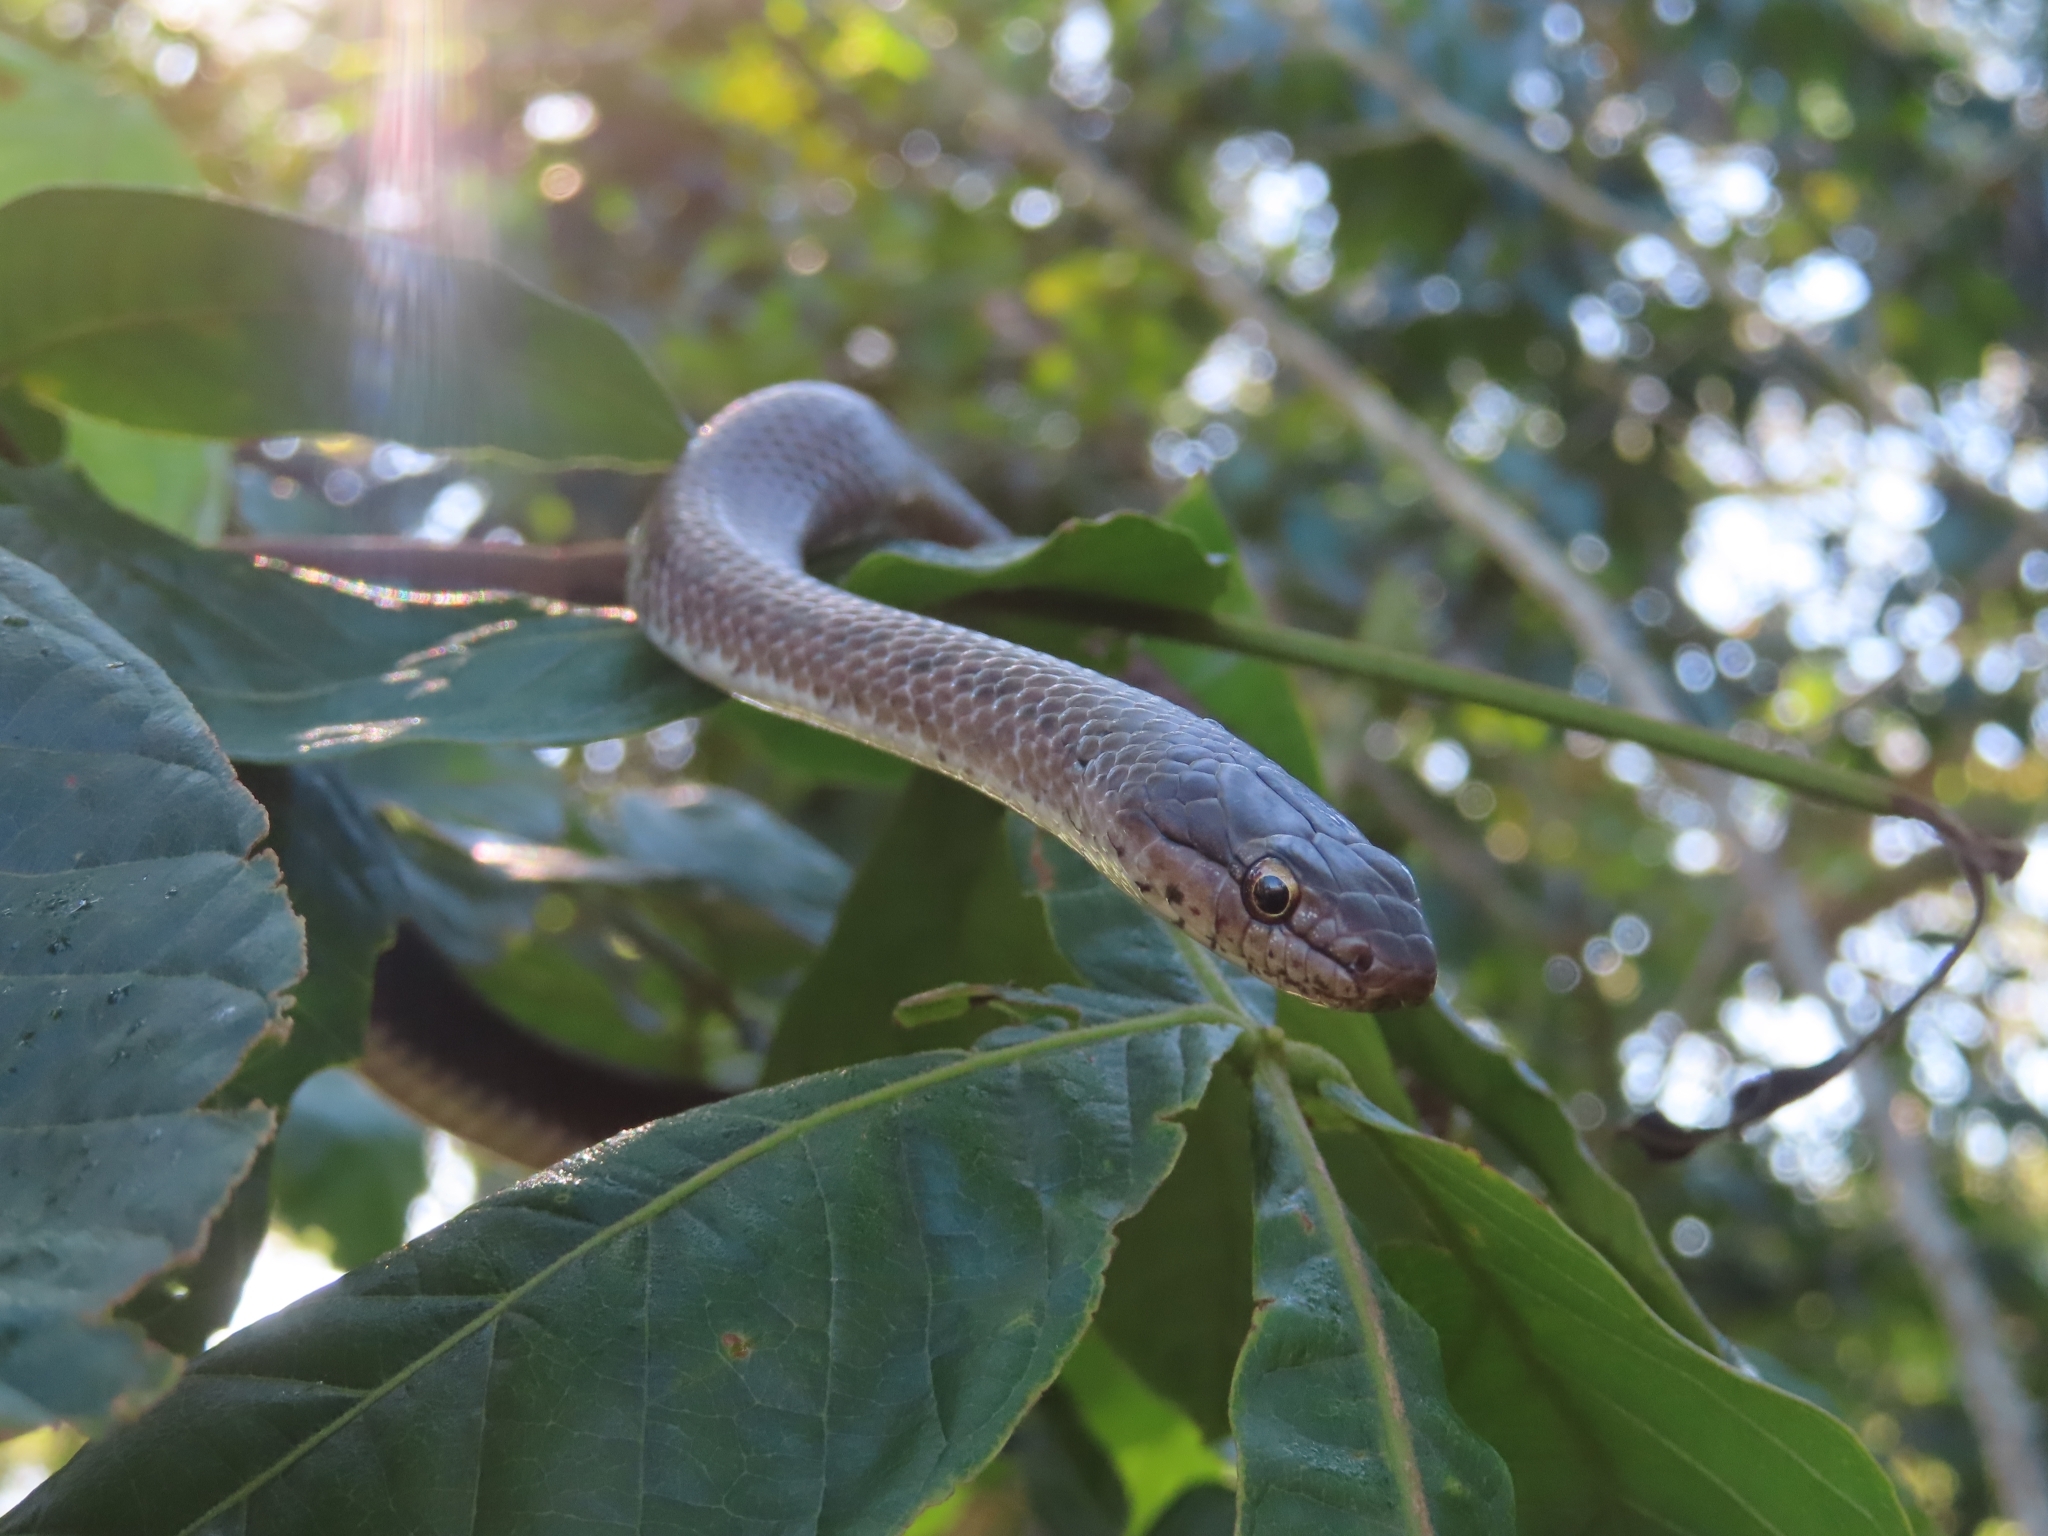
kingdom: Animalia
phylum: Chordata
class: Squamata
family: Colubridae
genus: Borikenophis
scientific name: Borikenophis portoricensis
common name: Puerto rican racer
